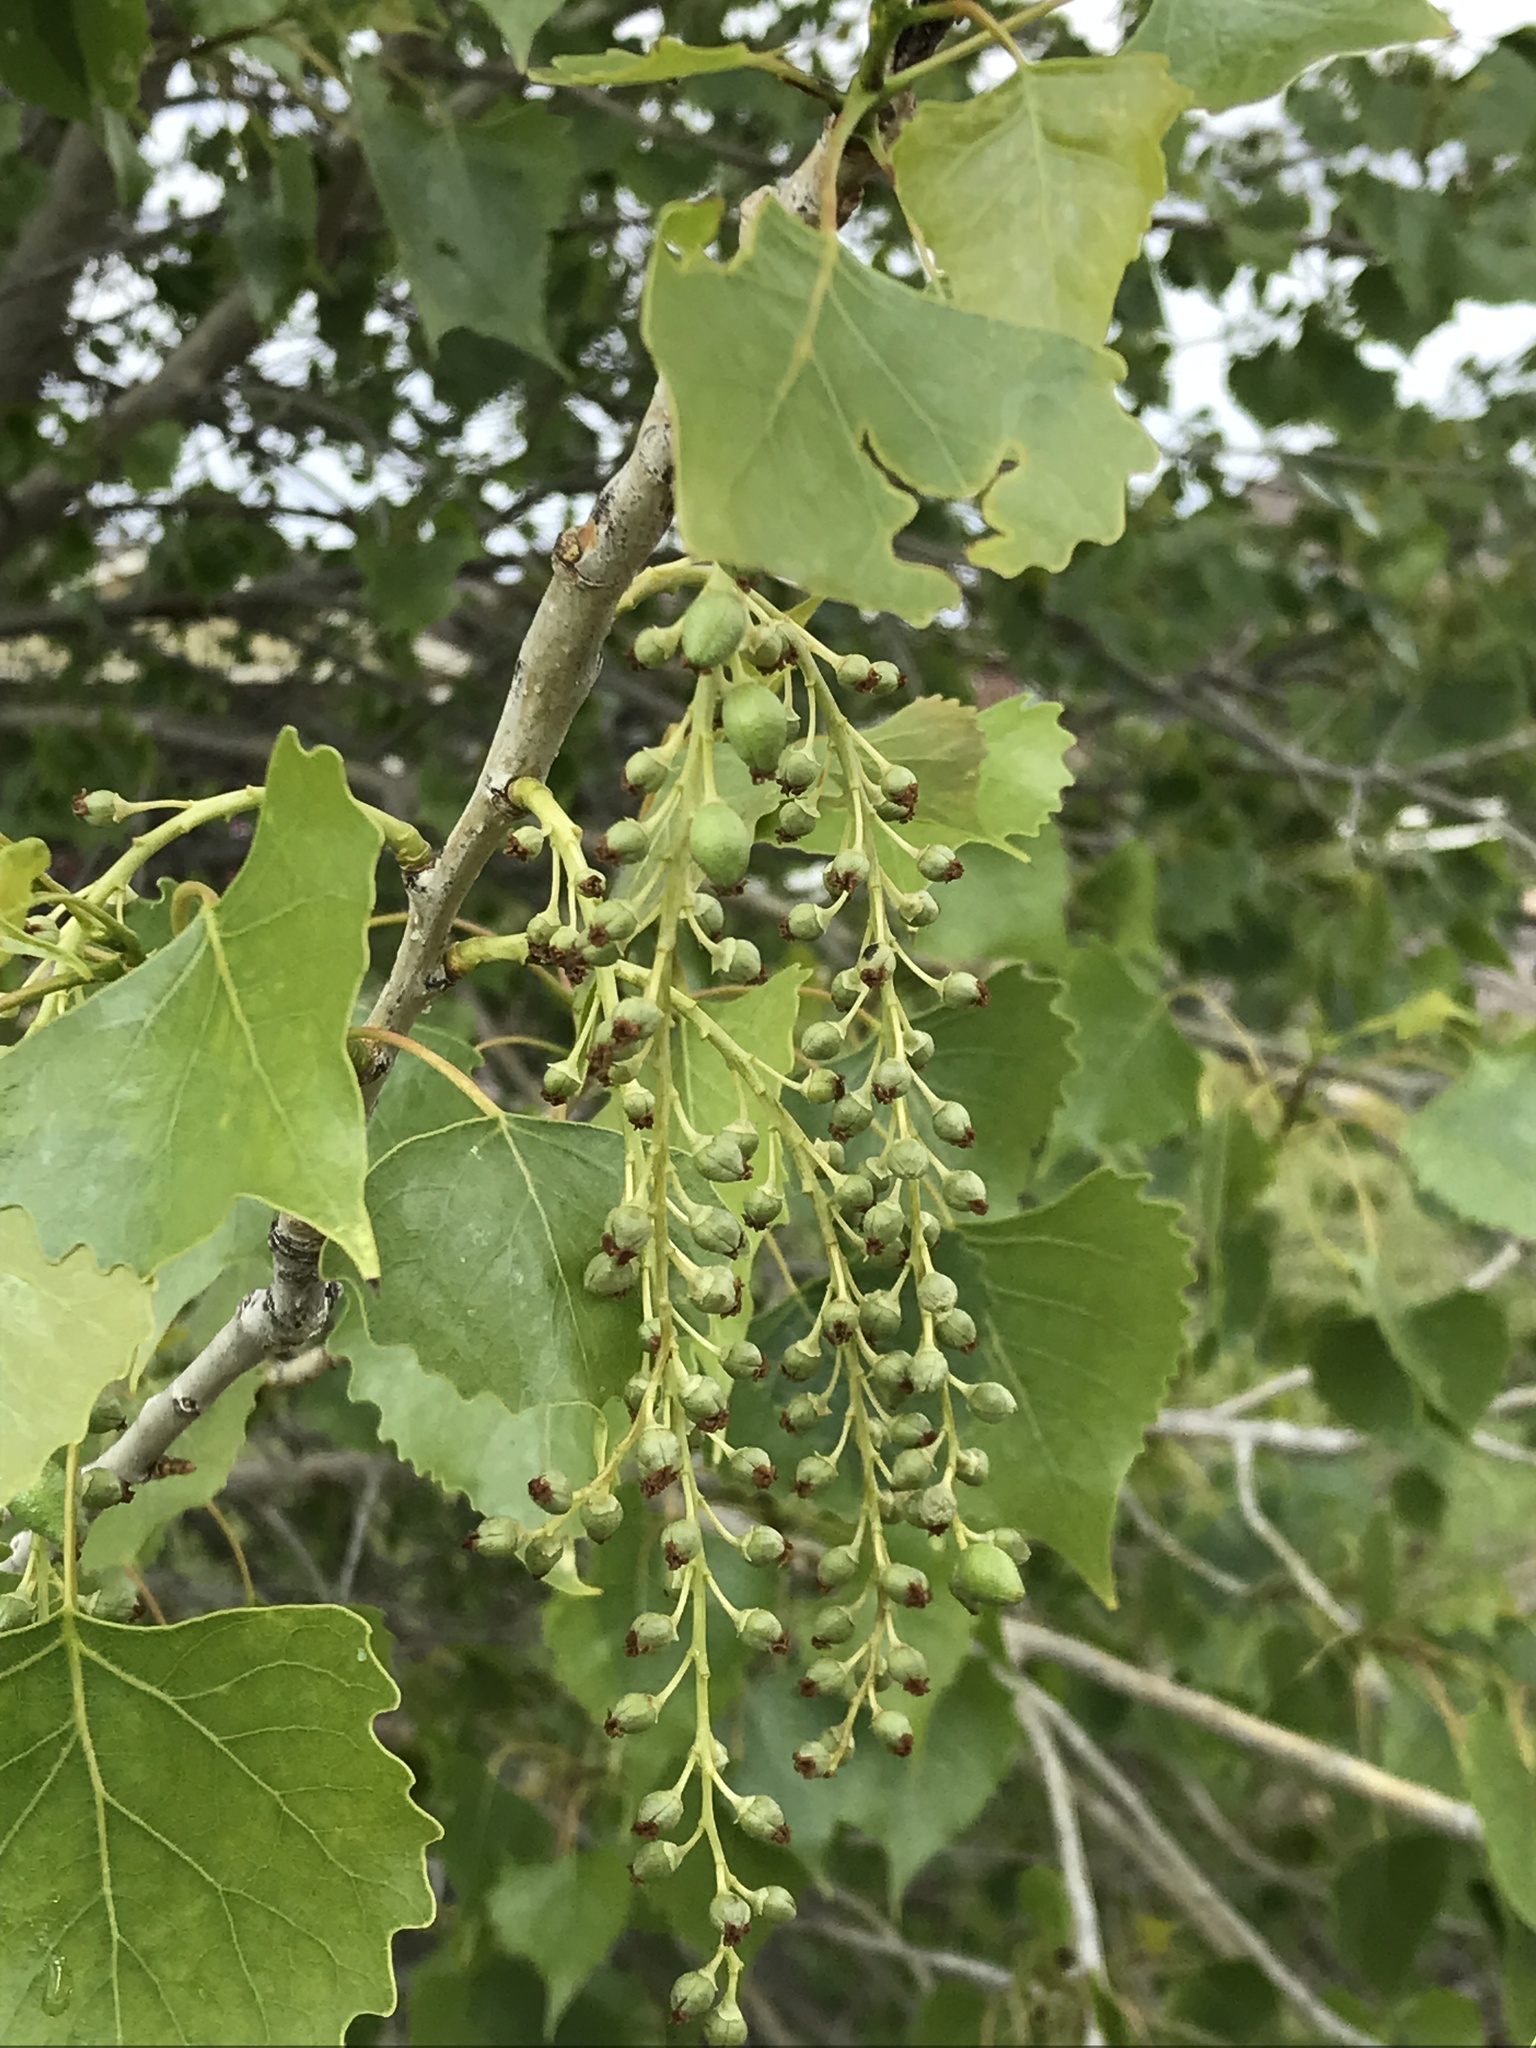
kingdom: Plantae
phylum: Tracheophyta
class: Magnoliopsida
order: Malpighiales
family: Salicaceae
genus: Populus
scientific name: Populus deltoides
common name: Eastern cottonwood
